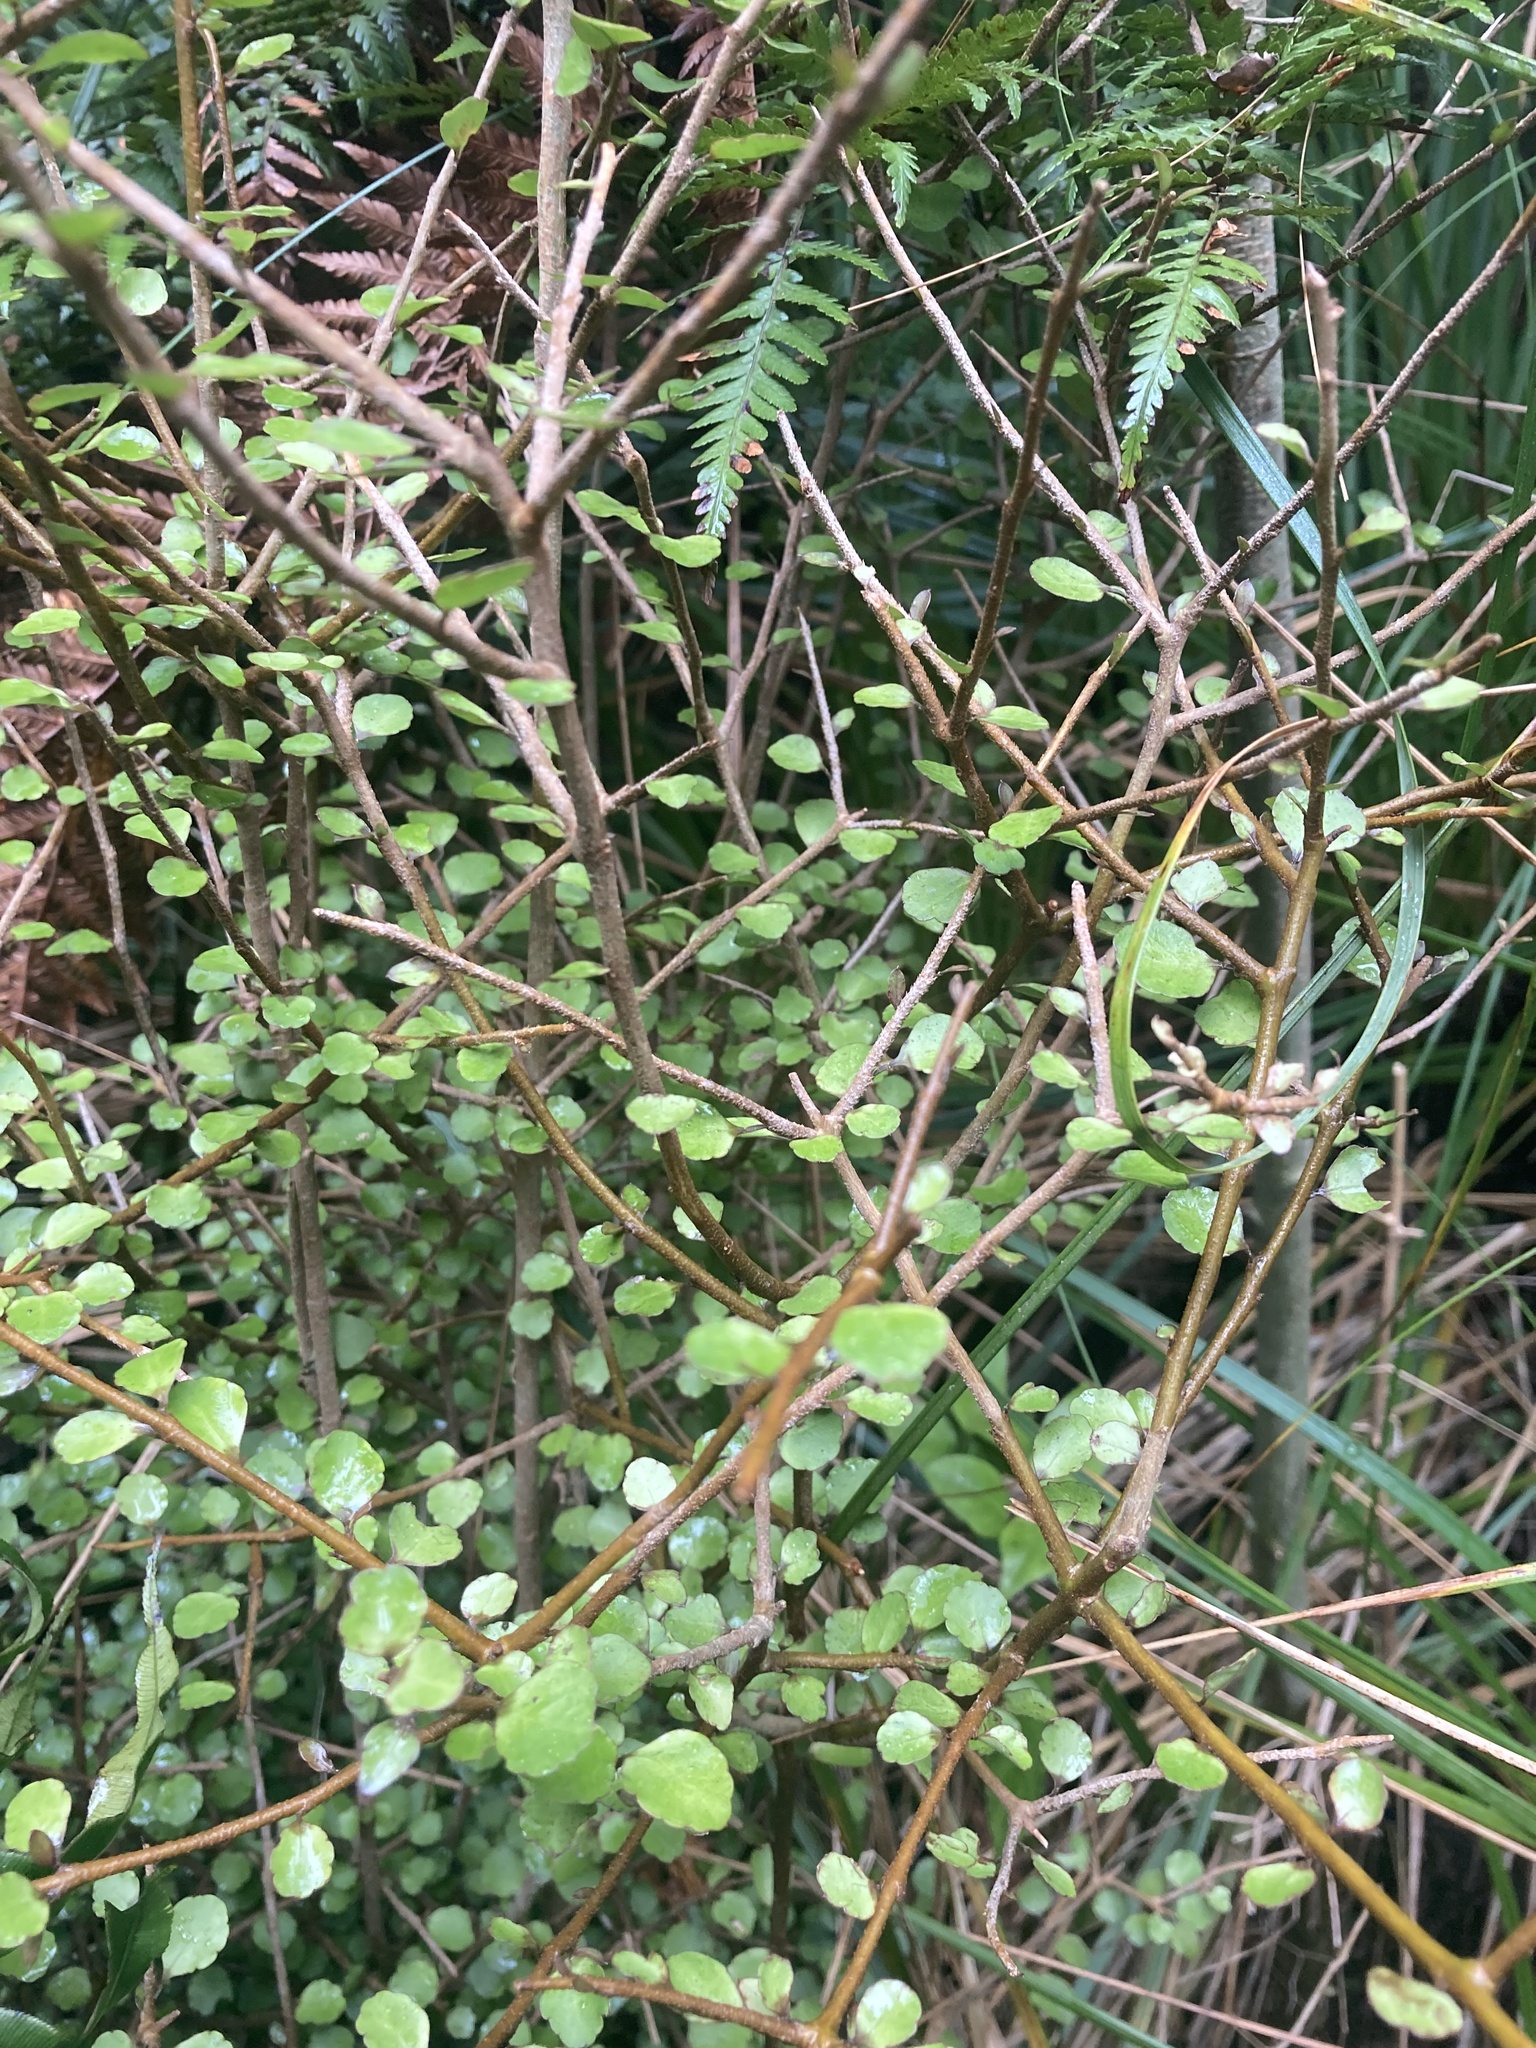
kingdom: Plantae
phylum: Tracheophyta
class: Magnoliopsida
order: Apiales
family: Araliaceae
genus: Raukaua
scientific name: Raukaua anomalus
